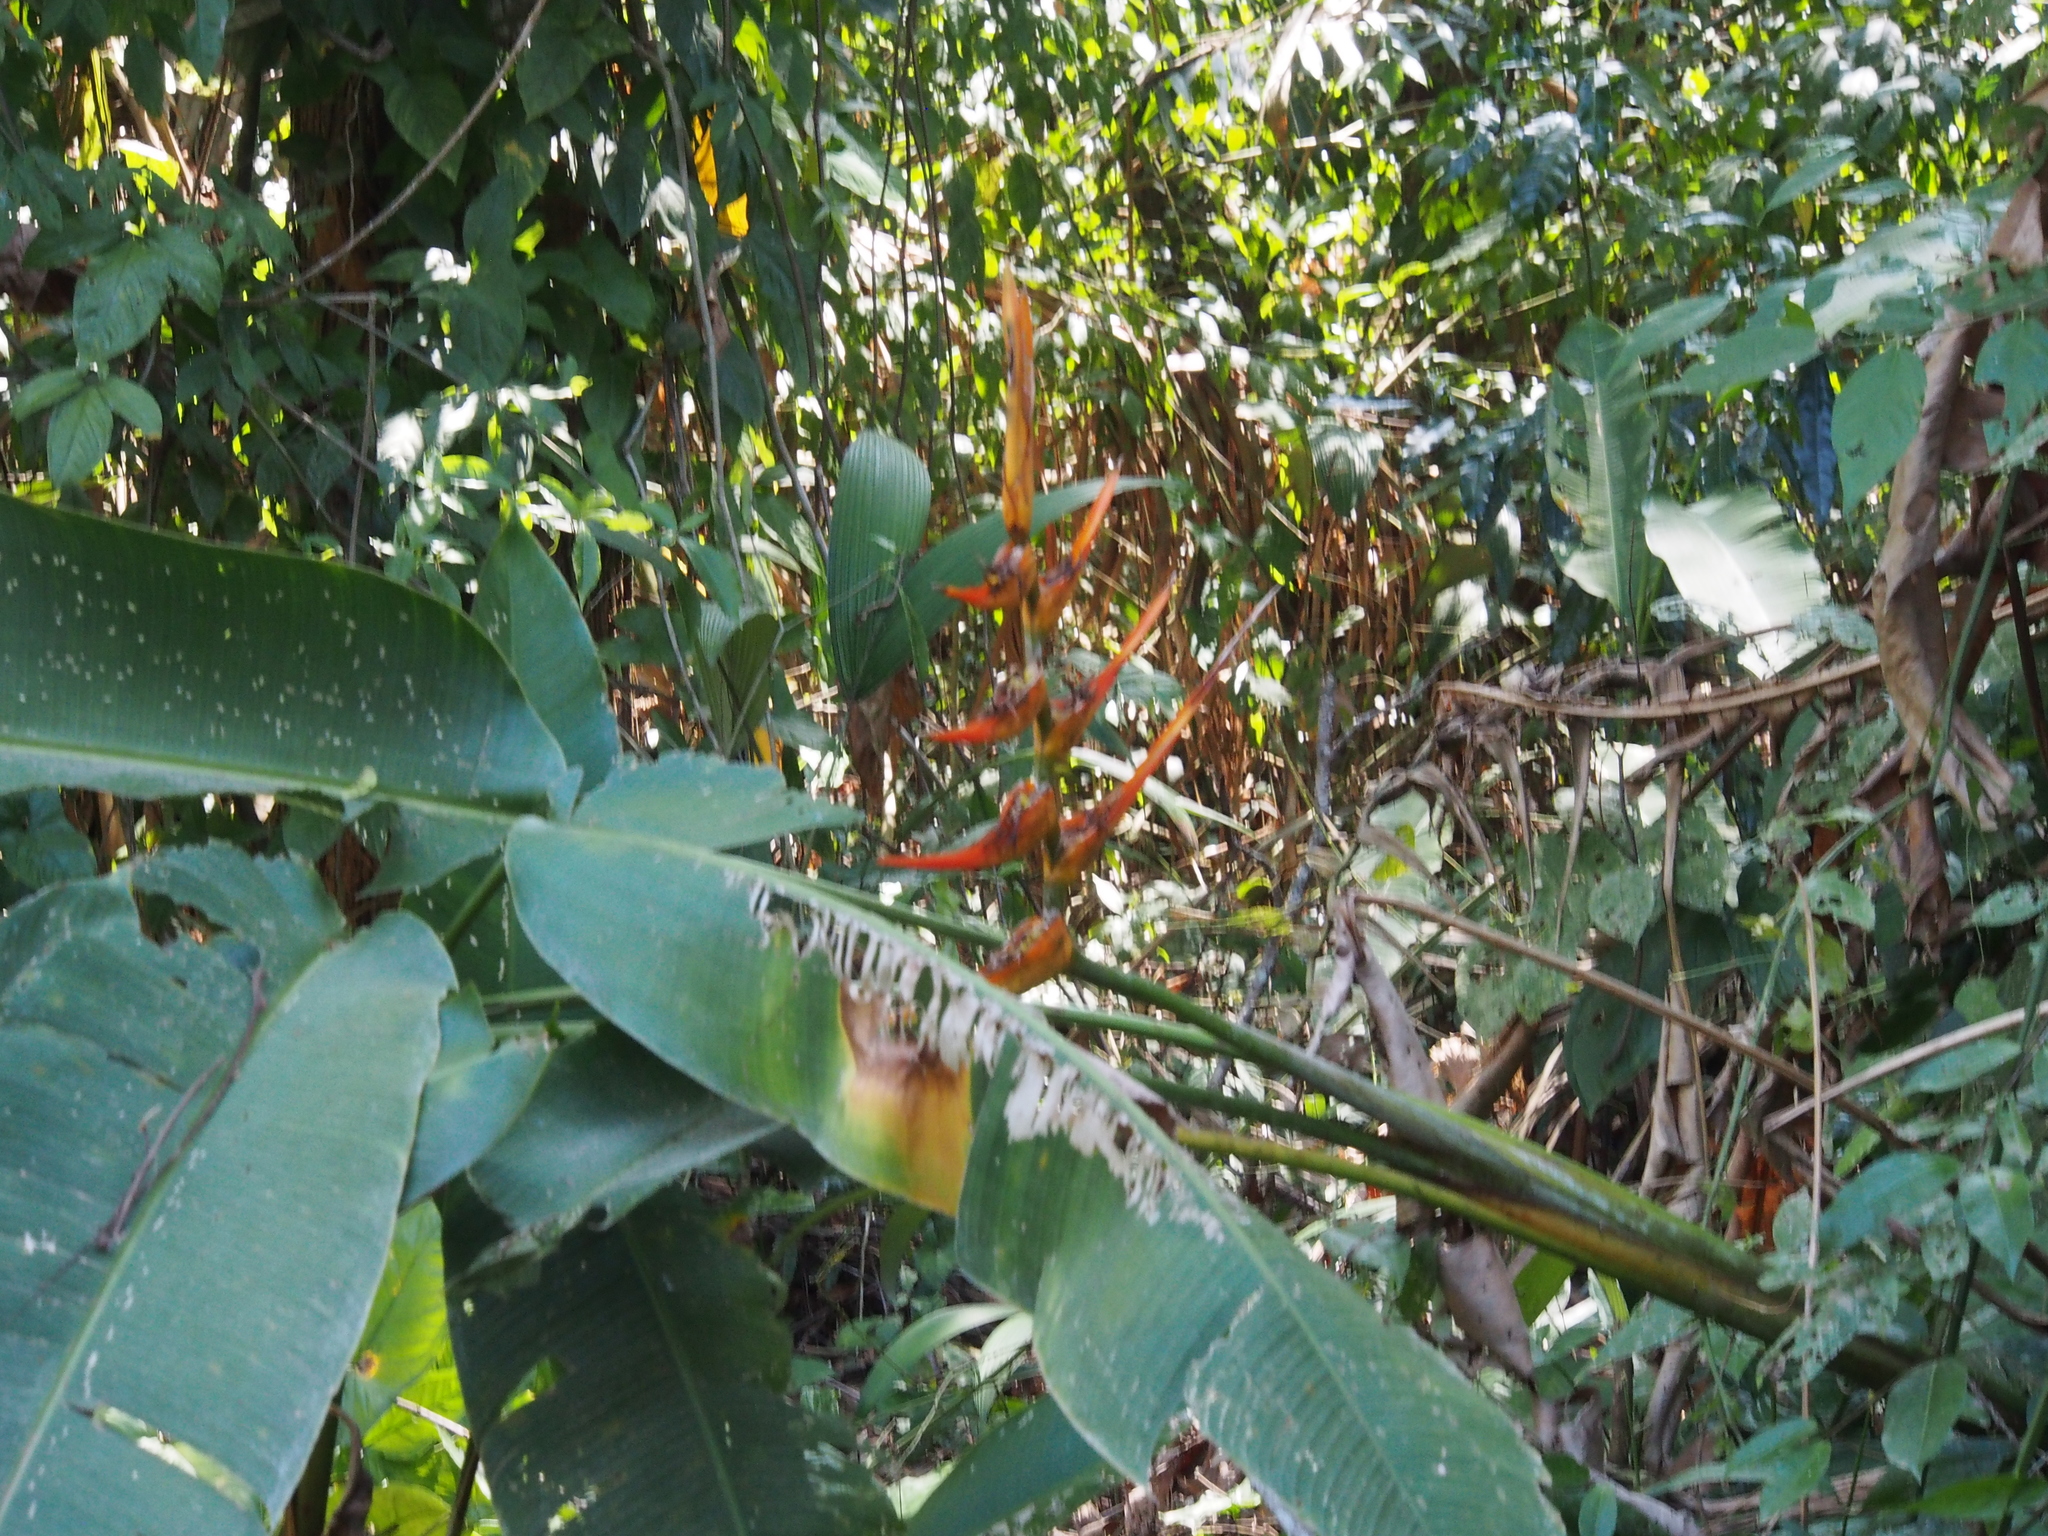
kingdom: Plantae
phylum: Tracheophyta
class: Liliopsida
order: Zingiberales
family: Heliconiaceae
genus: Heliconia
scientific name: Heliconia latispatha
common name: Expanded lobsterclaw
